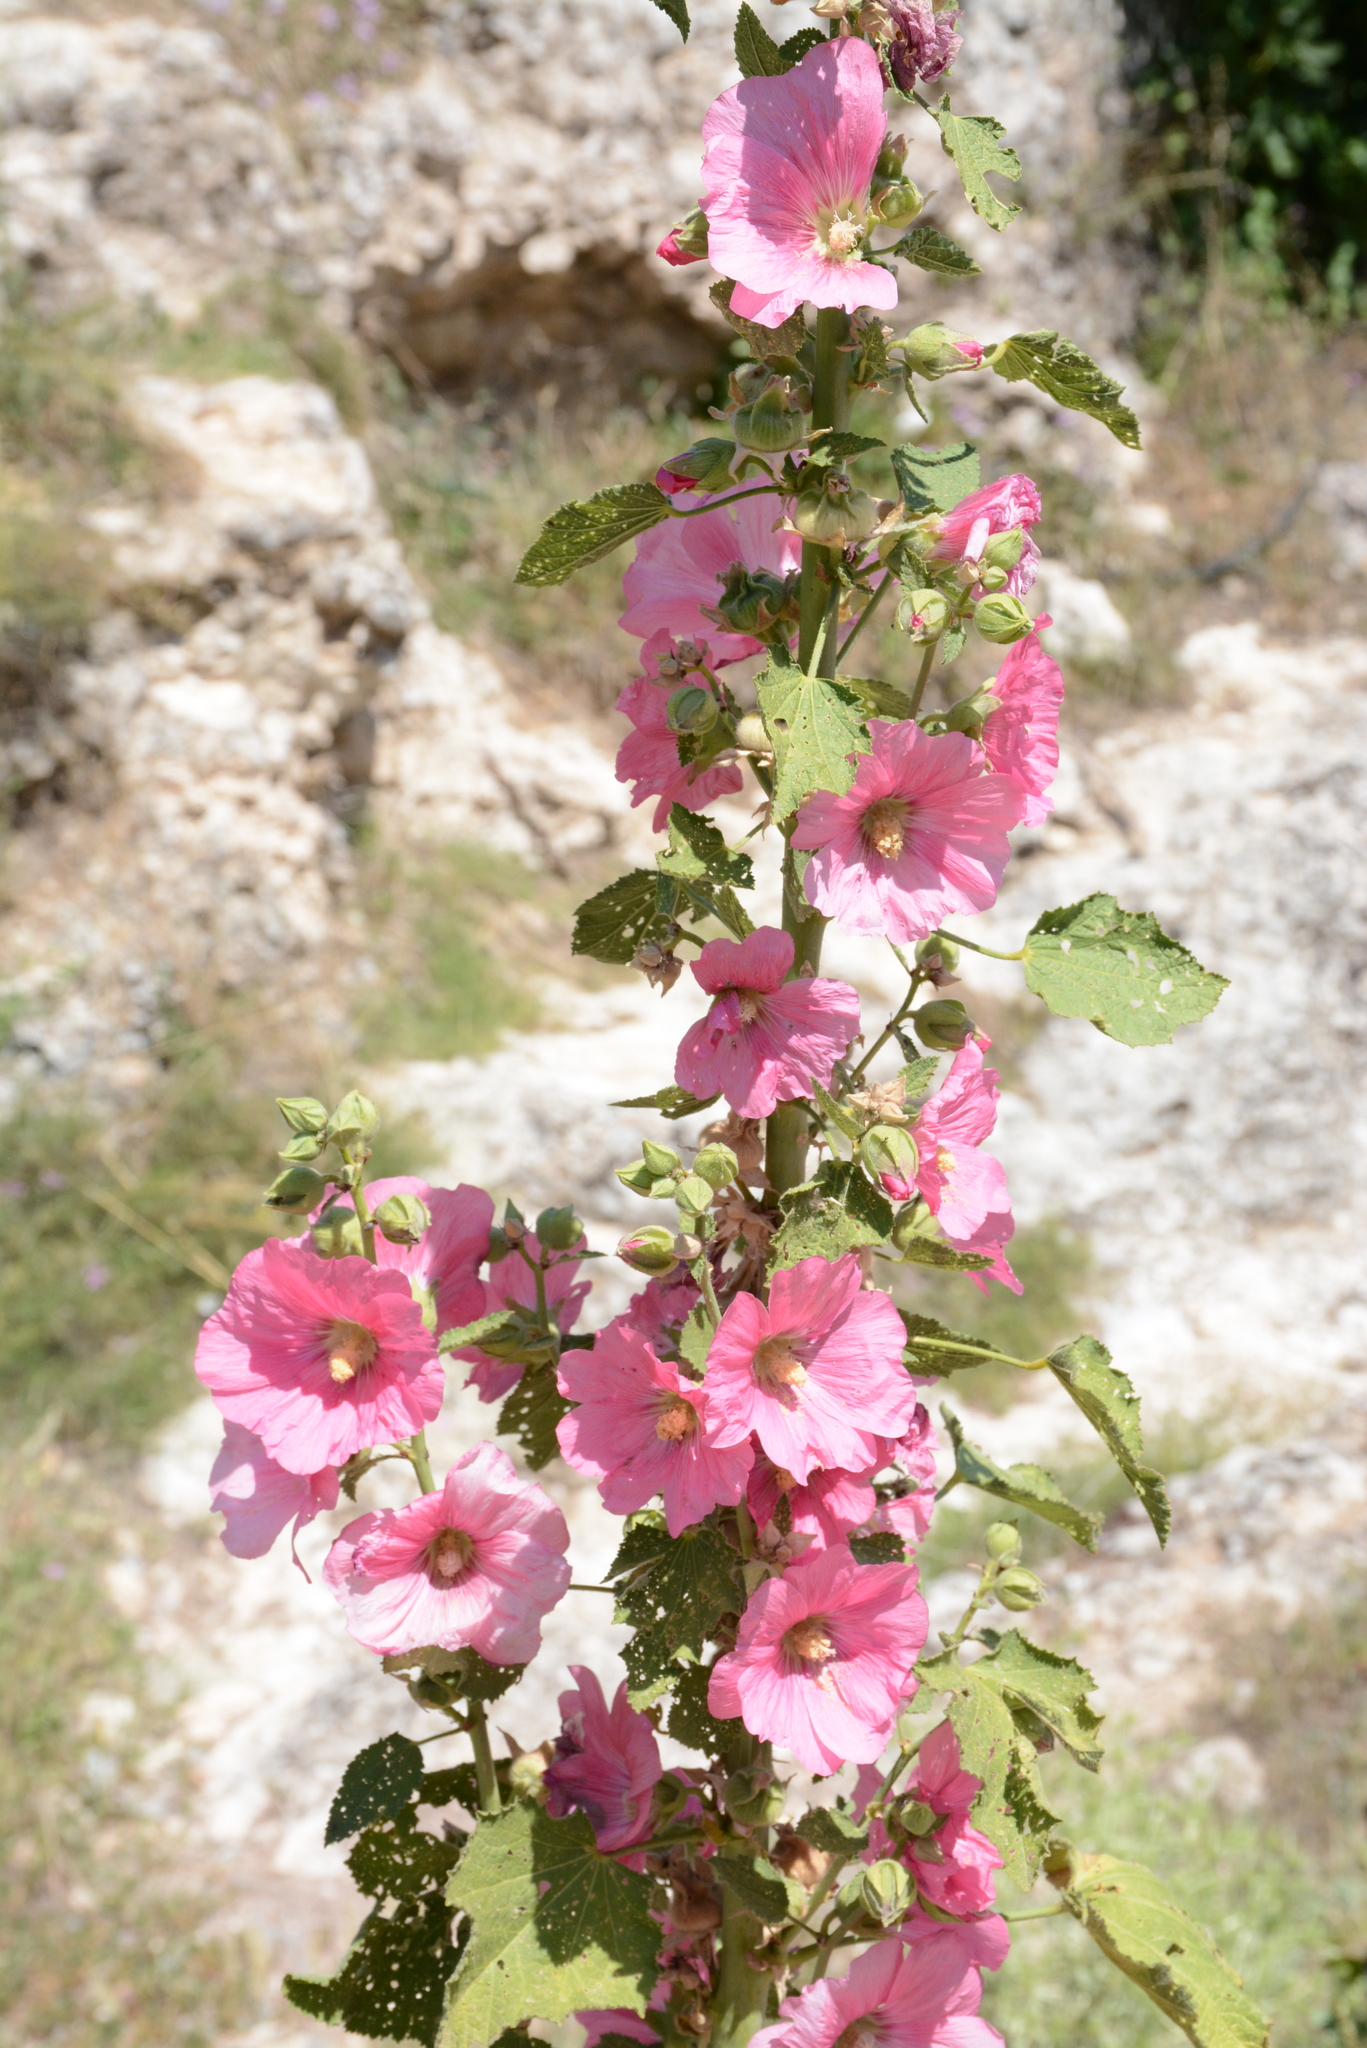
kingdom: Plantae
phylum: Tracheophyta
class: Magnoliopsida
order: Malvales
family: Malvaceae
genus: Alcea
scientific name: Alcea rosea
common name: Hollyhock
